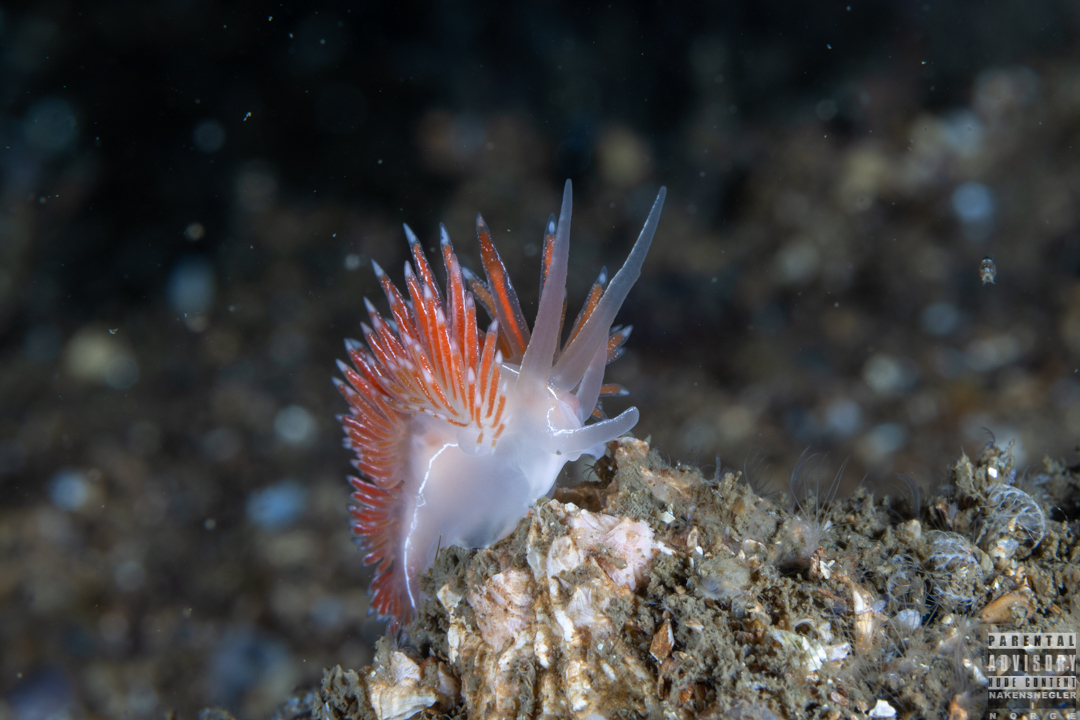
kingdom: Animalia
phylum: Mollusca
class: Gastropoda
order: Nudibranchia
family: Coryphellidae
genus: Coryphella
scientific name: Coryphella chriskaugei
